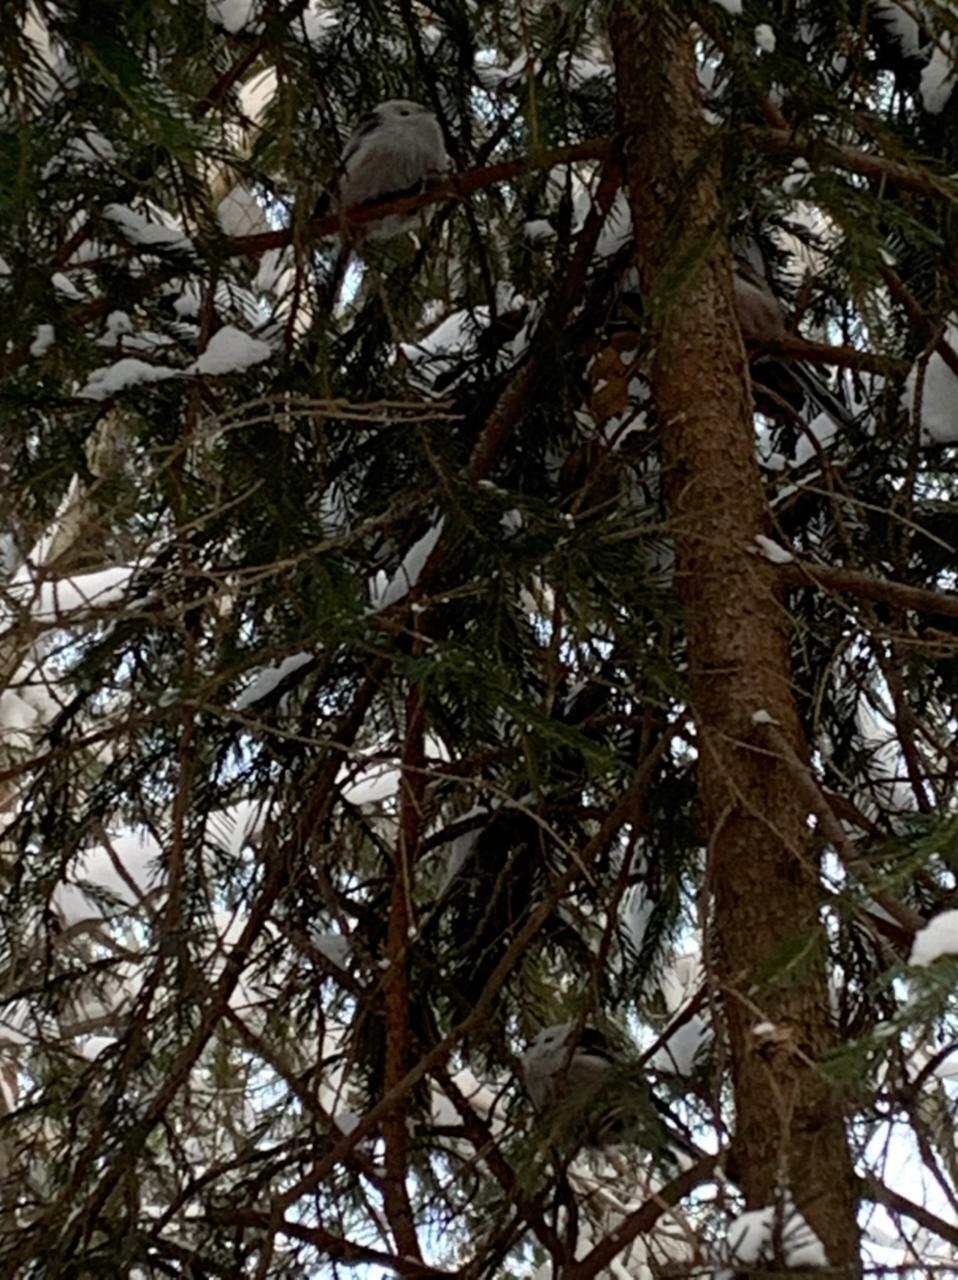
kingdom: Animalia
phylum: Chordata
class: Aves
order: Passeriformes
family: Aegithalidae
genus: Aegithalos
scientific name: Aegithalos caudatus
